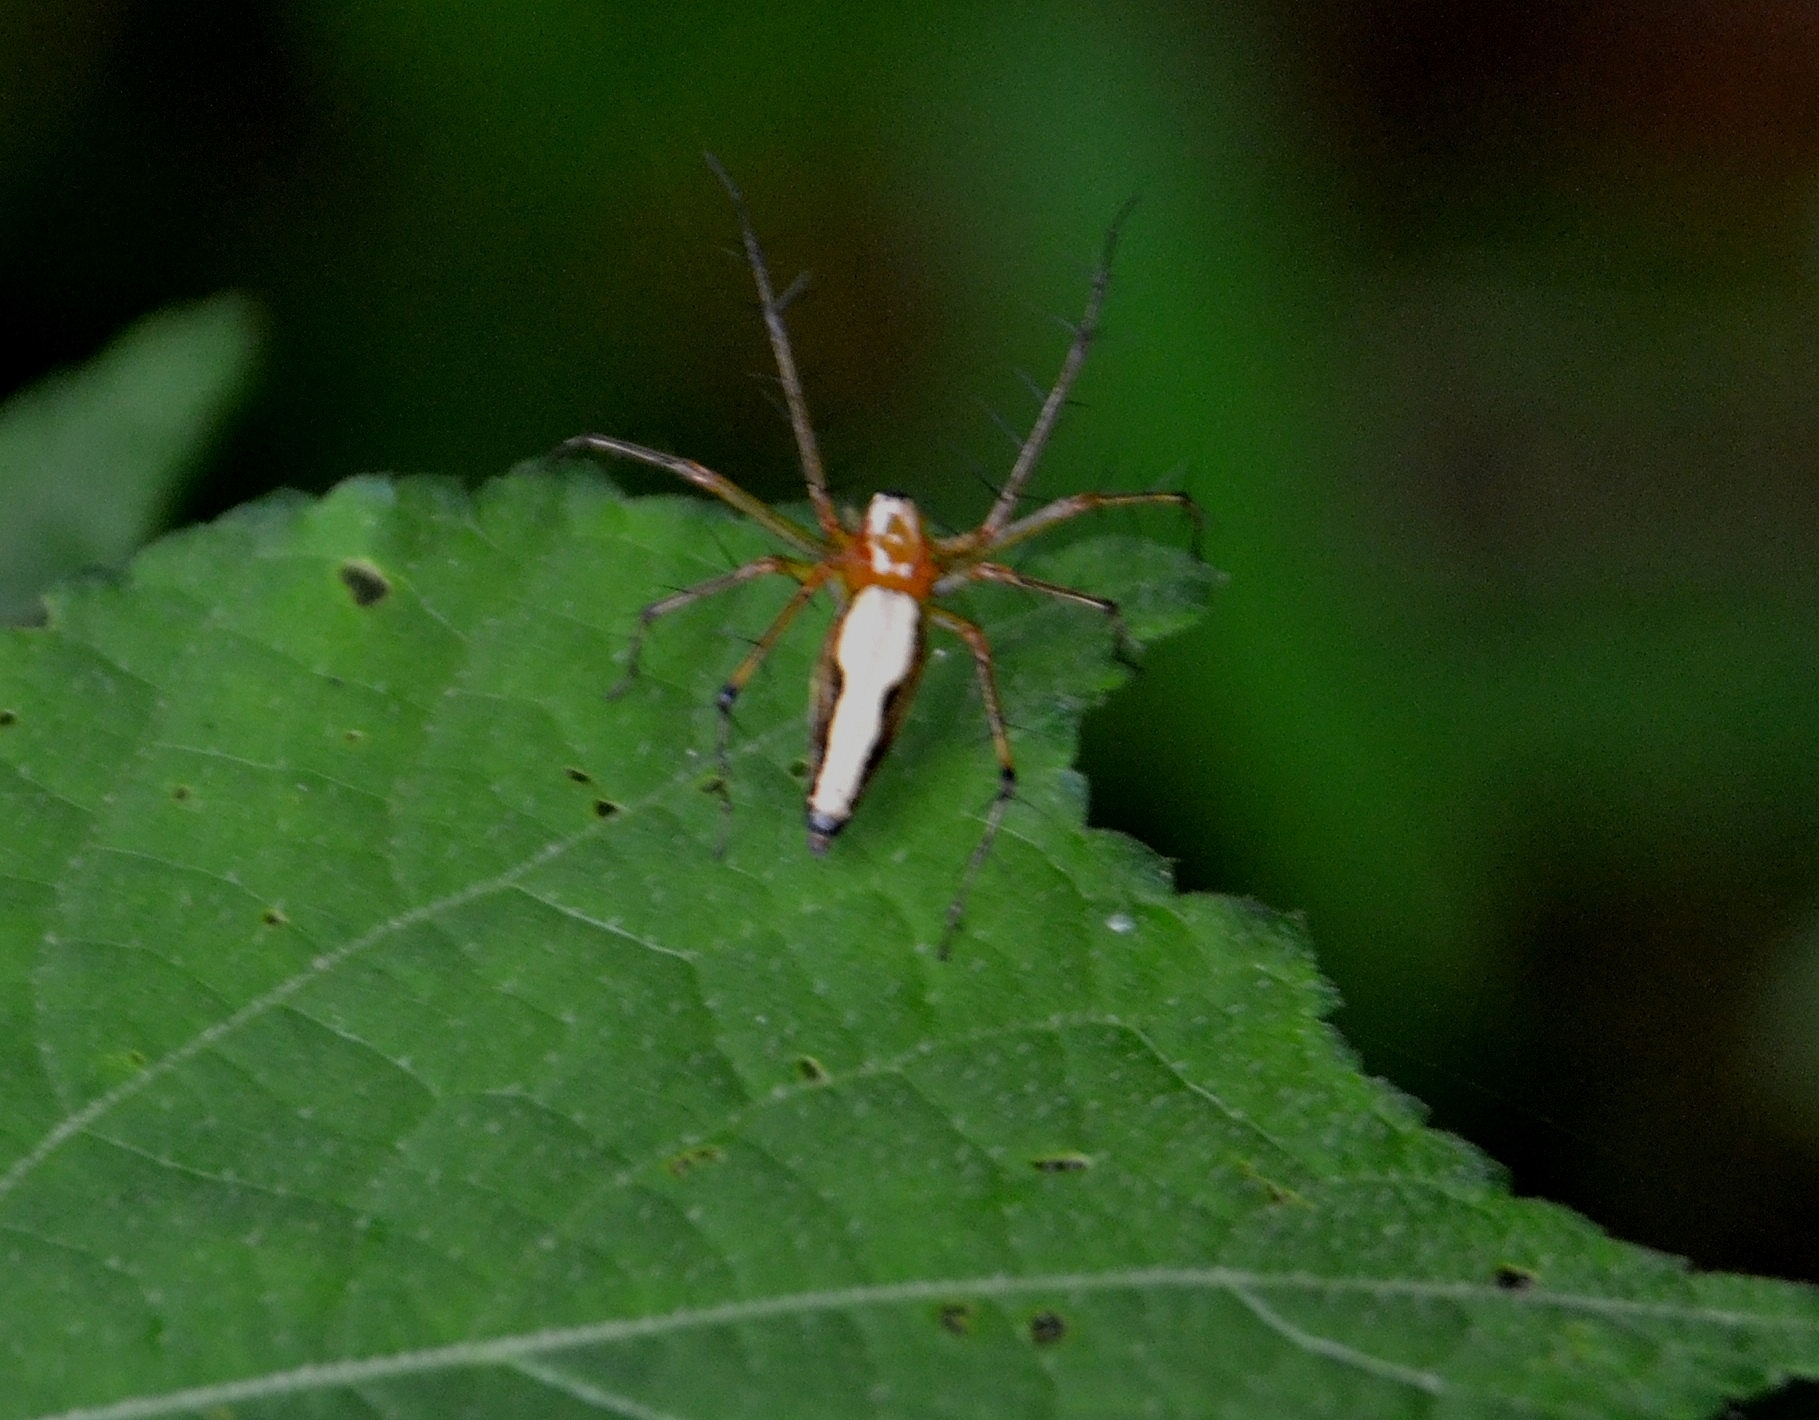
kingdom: Animalia
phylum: Arthropoda
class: Arachnida
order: Araneae
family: Oxyopidae
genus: Oxyopes
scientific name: Oxyopes shweta
